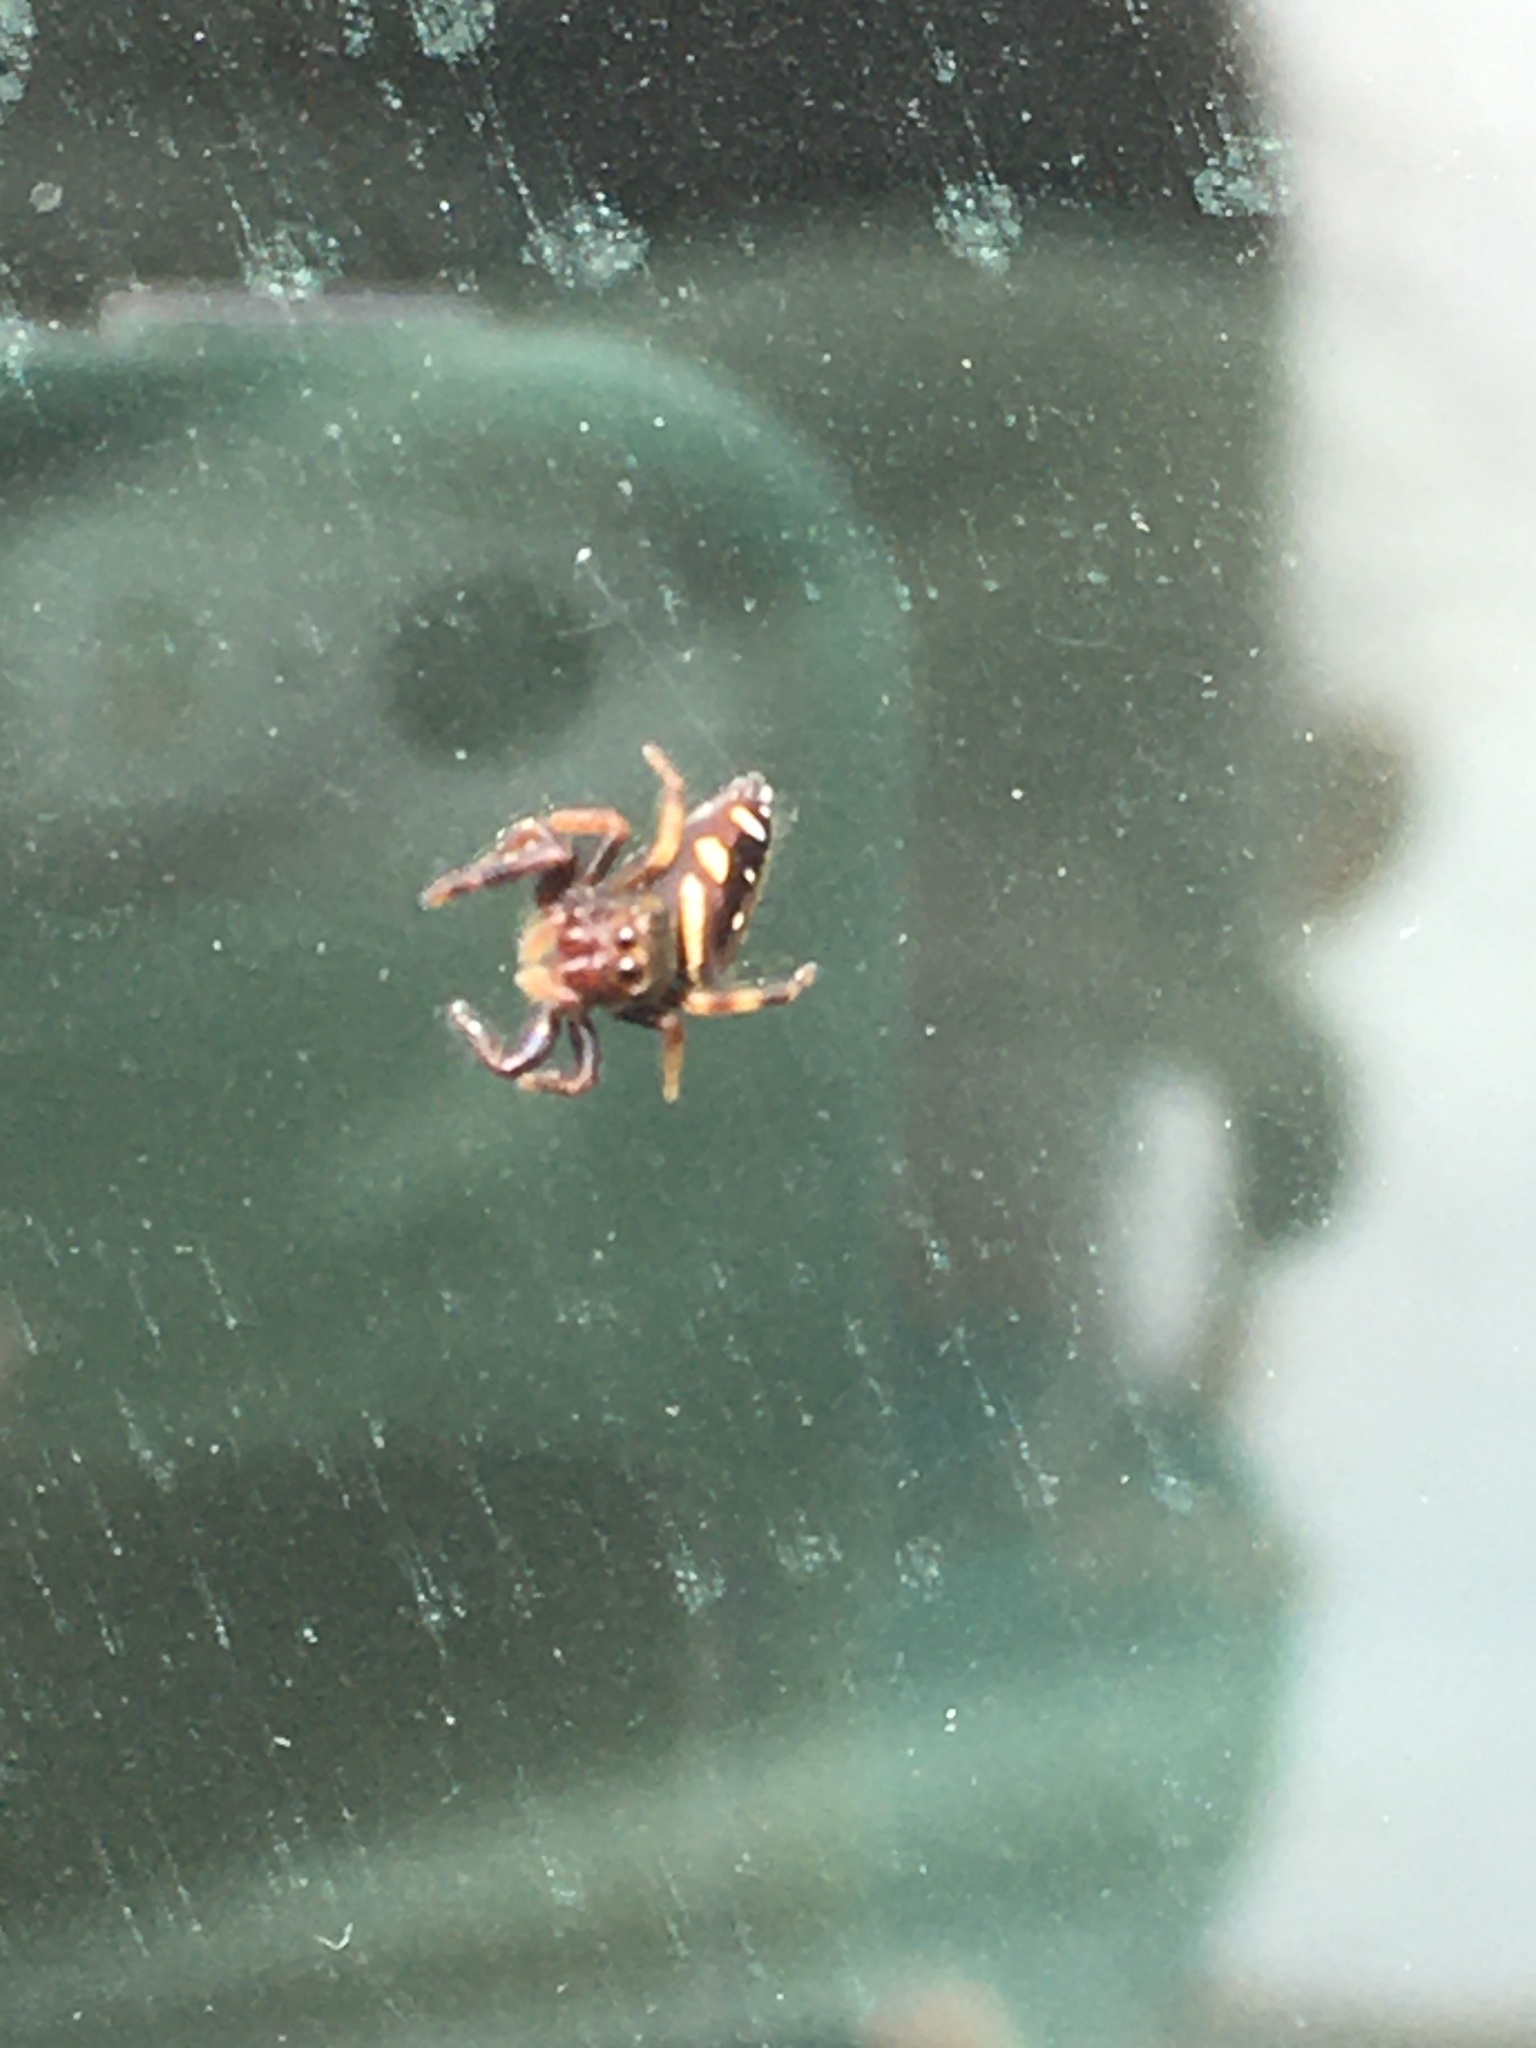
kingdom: Animalia
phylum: Arthropoda
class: Arachnida
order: Araneae
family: Salticidae
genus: Paraphidippus
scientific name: Paraphidippus aurantius
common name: Jumping spiders
